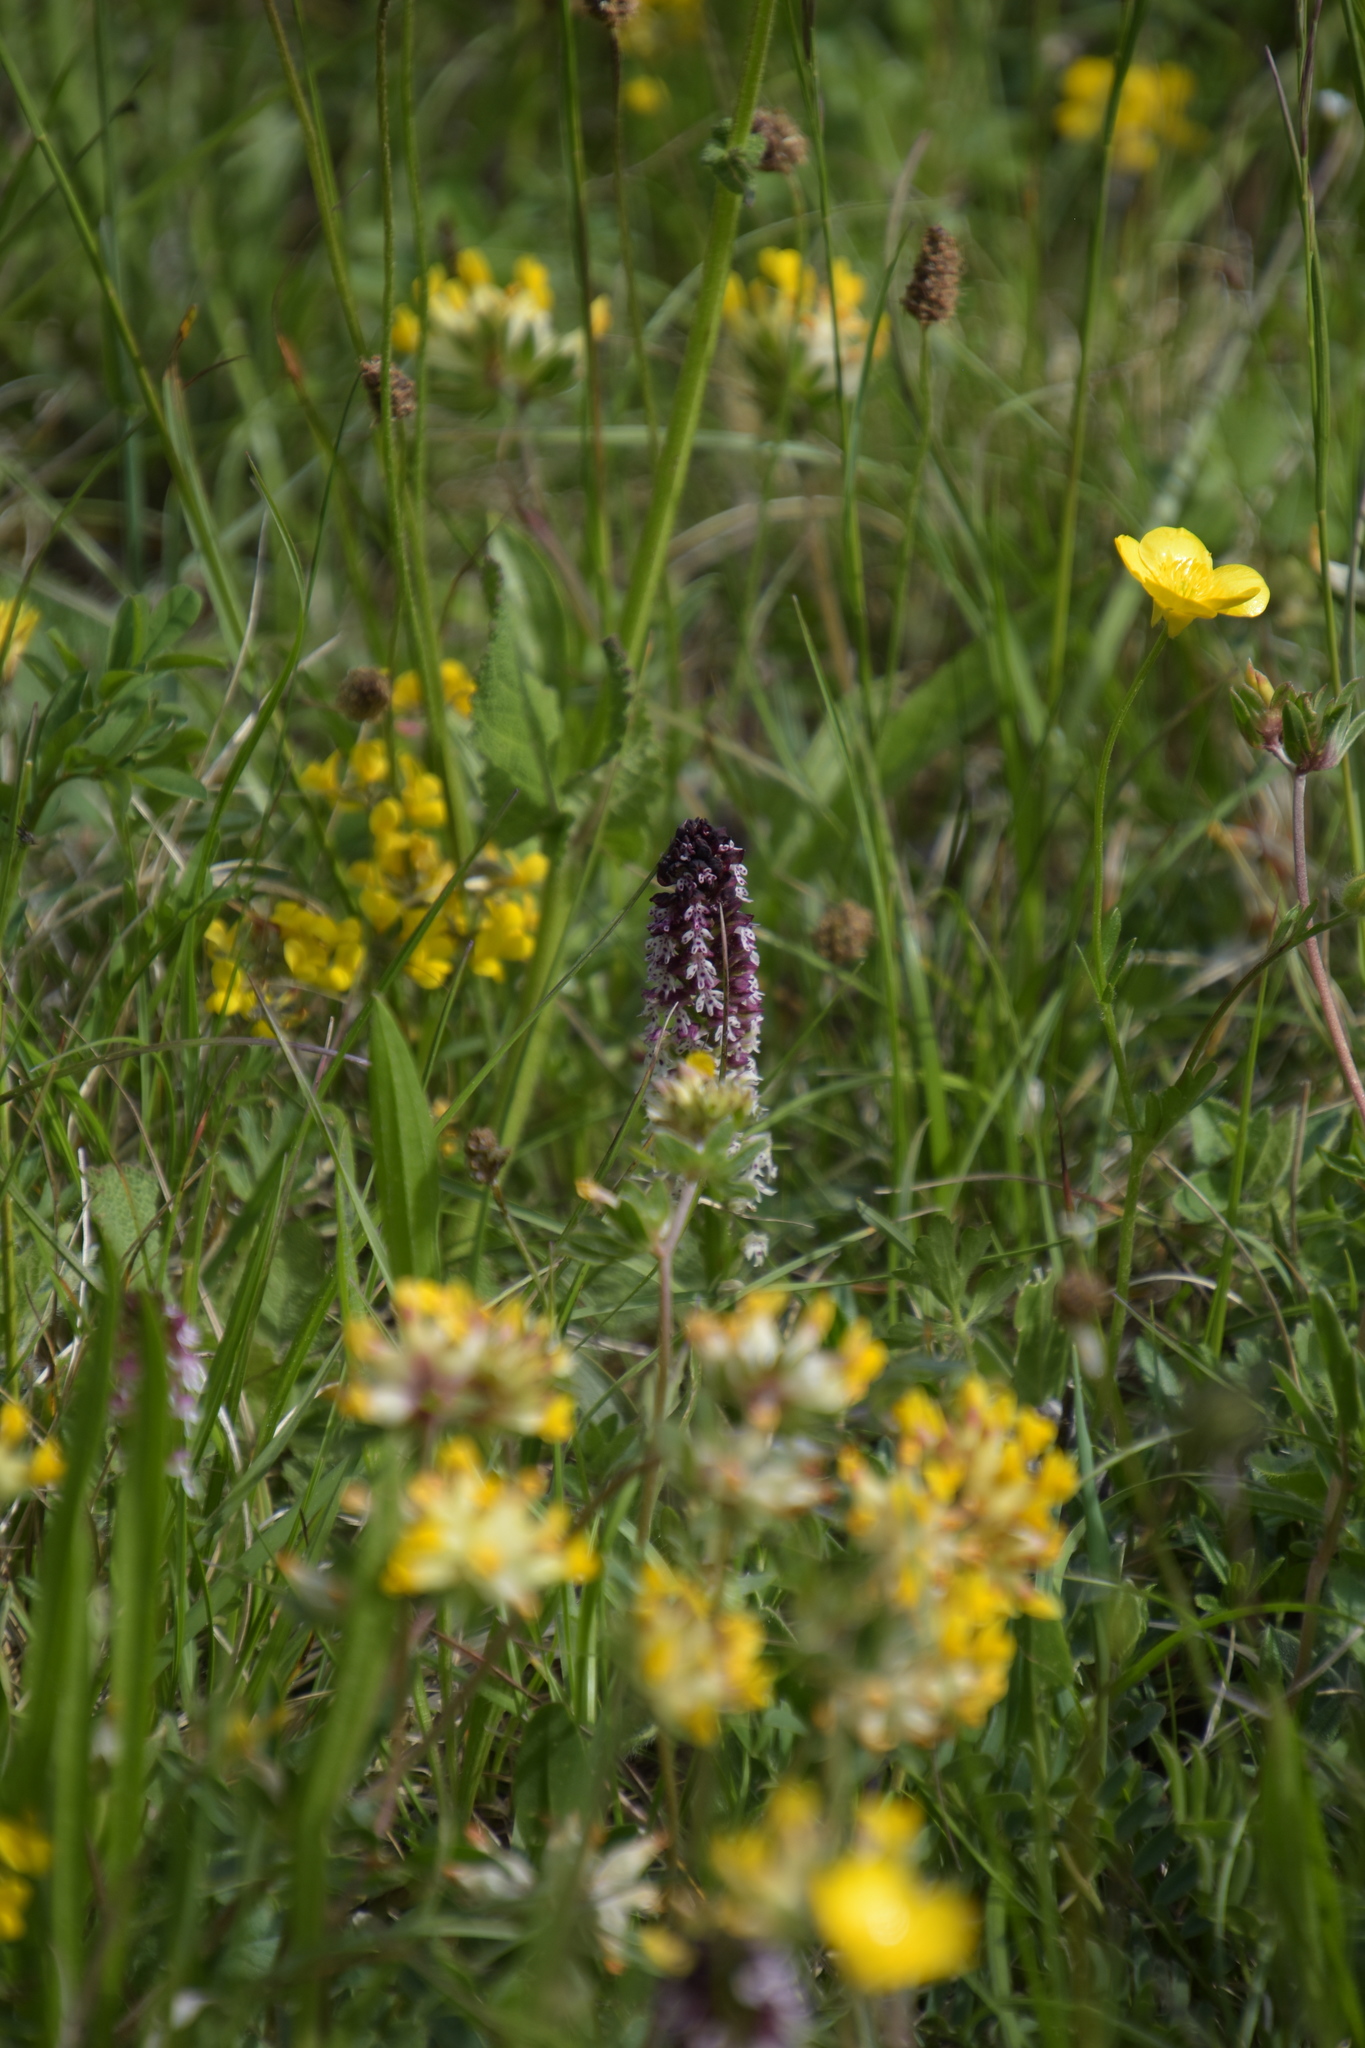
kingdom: Plantae
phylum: Tracheophyta
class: Liliopsida
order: Asparagales
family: Orchidaceae
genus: Neotinea
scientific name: Neotinea ustulata
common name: Burnt orchid
